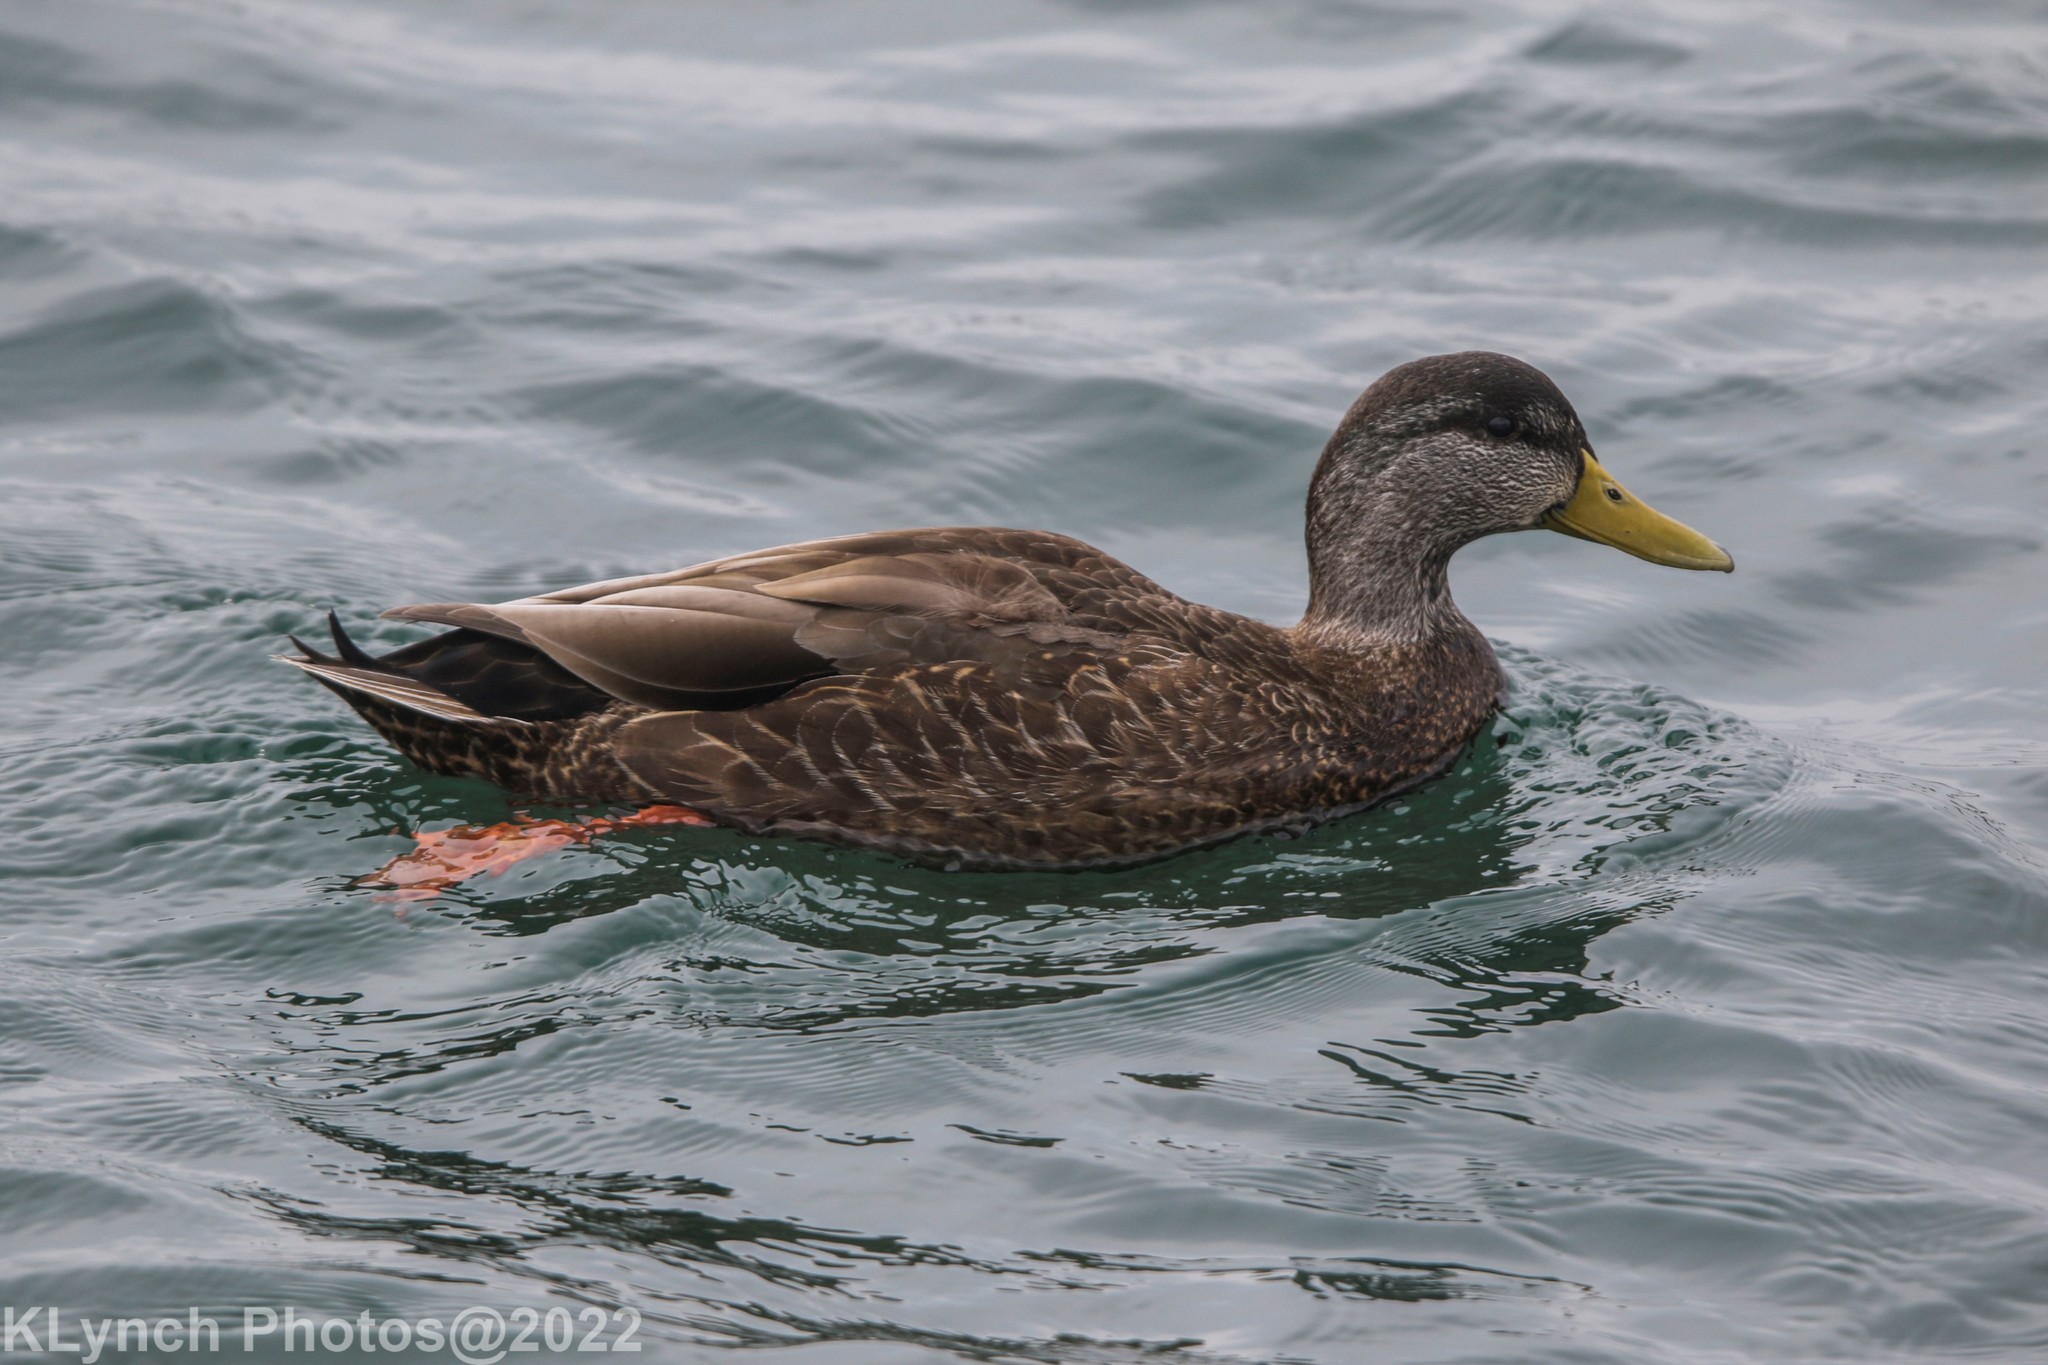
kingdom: Animalia
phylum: Chordata
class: Aves
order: Anseriformes
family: Anatidae
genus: Anas
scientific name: Anas rubripes
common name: American black duck
